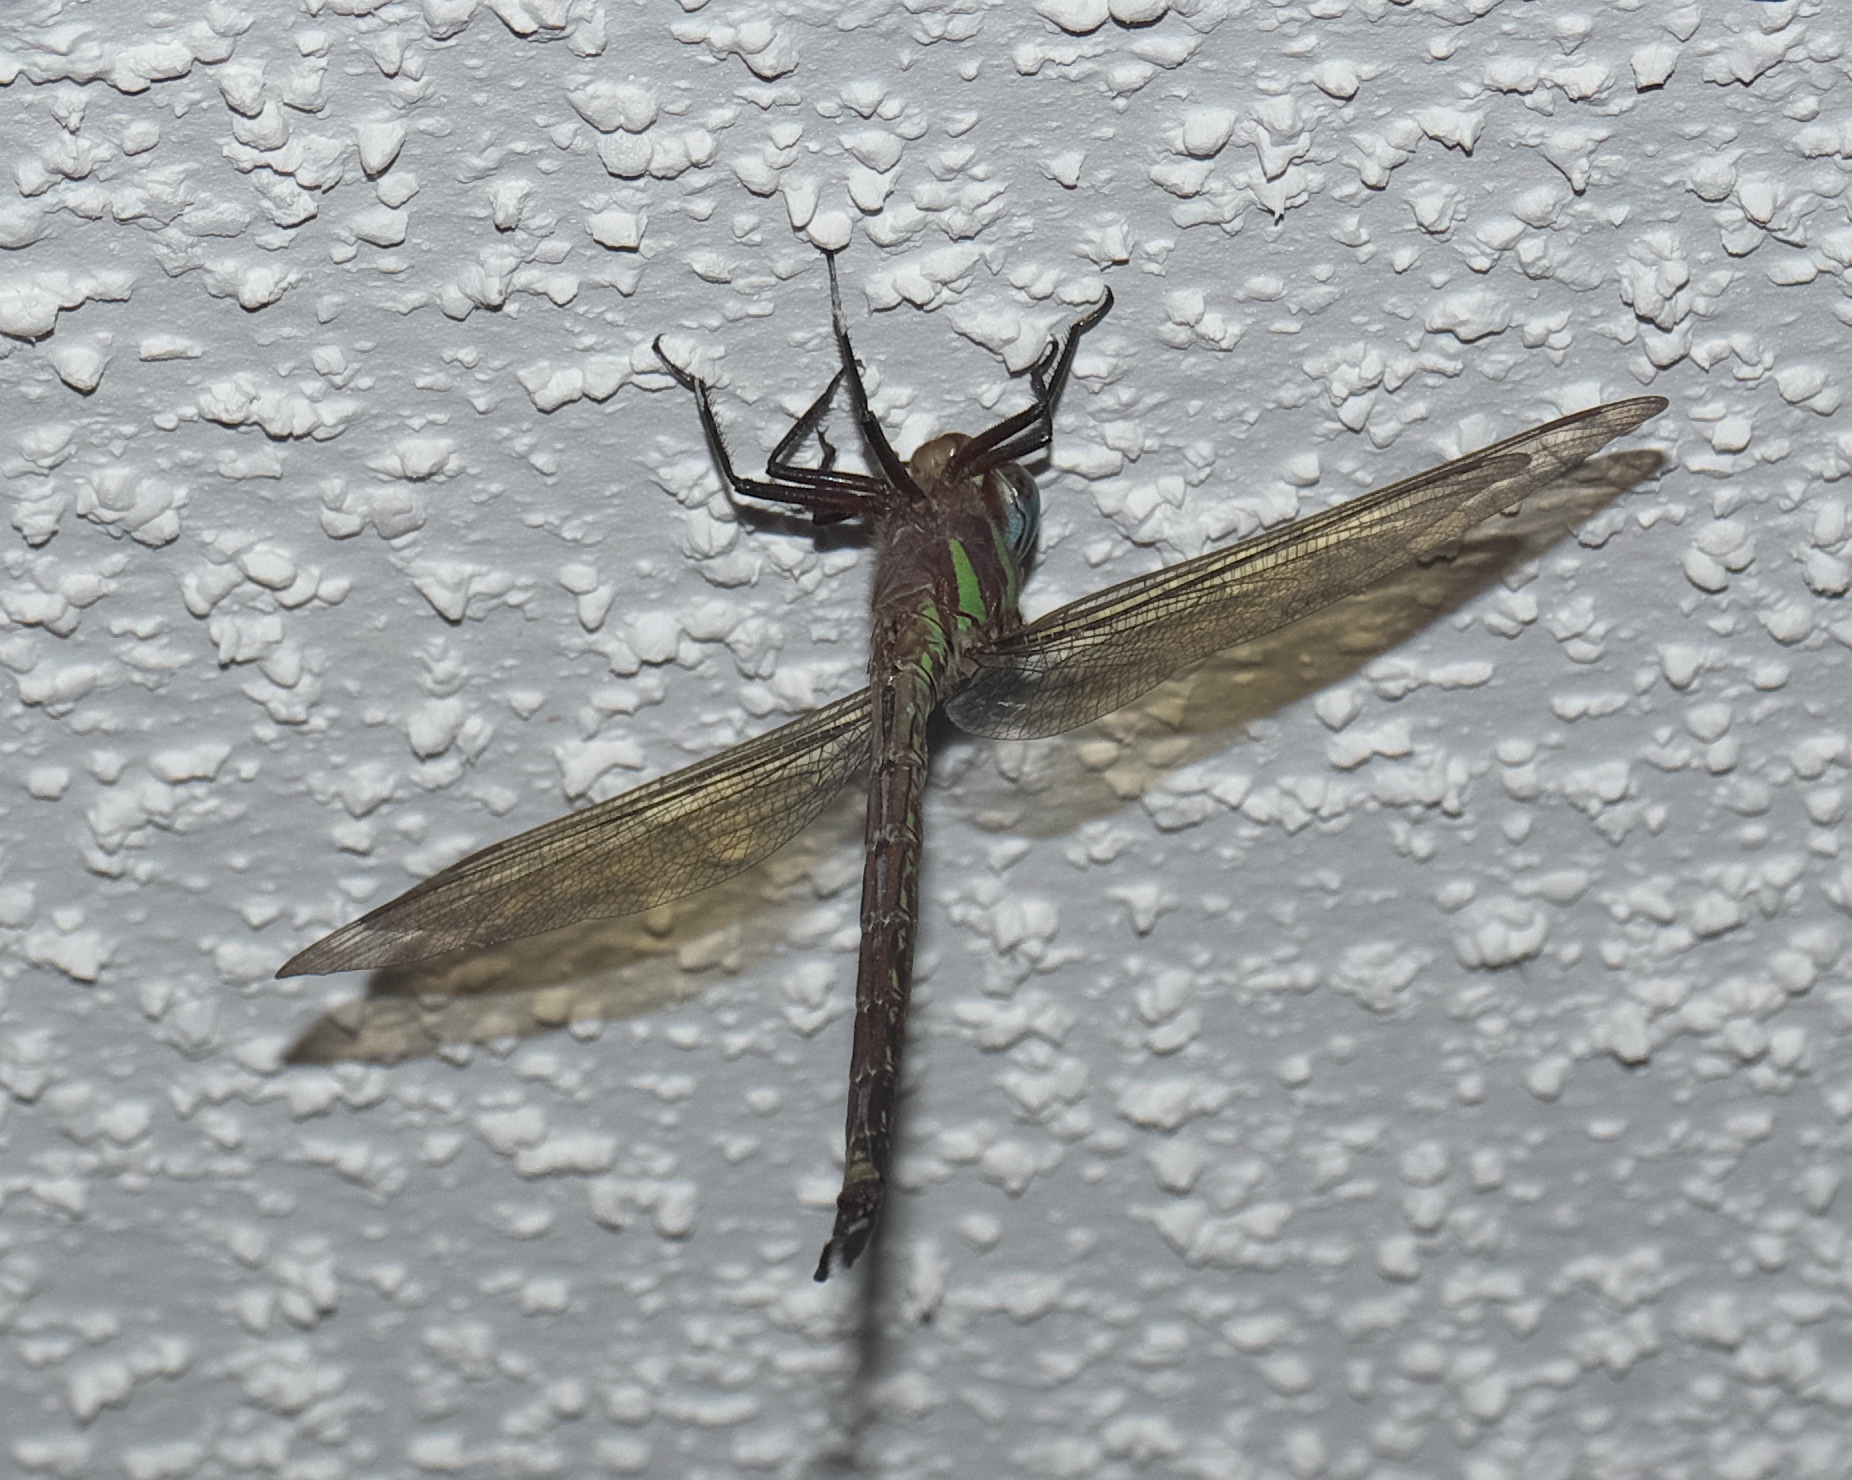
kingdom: Animalia
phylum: Arthropoda
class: Insecta
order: Odonata
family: Aeshnidae
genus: Epiaeschna
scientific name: Epiaeschna heros
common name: Swamp darner
